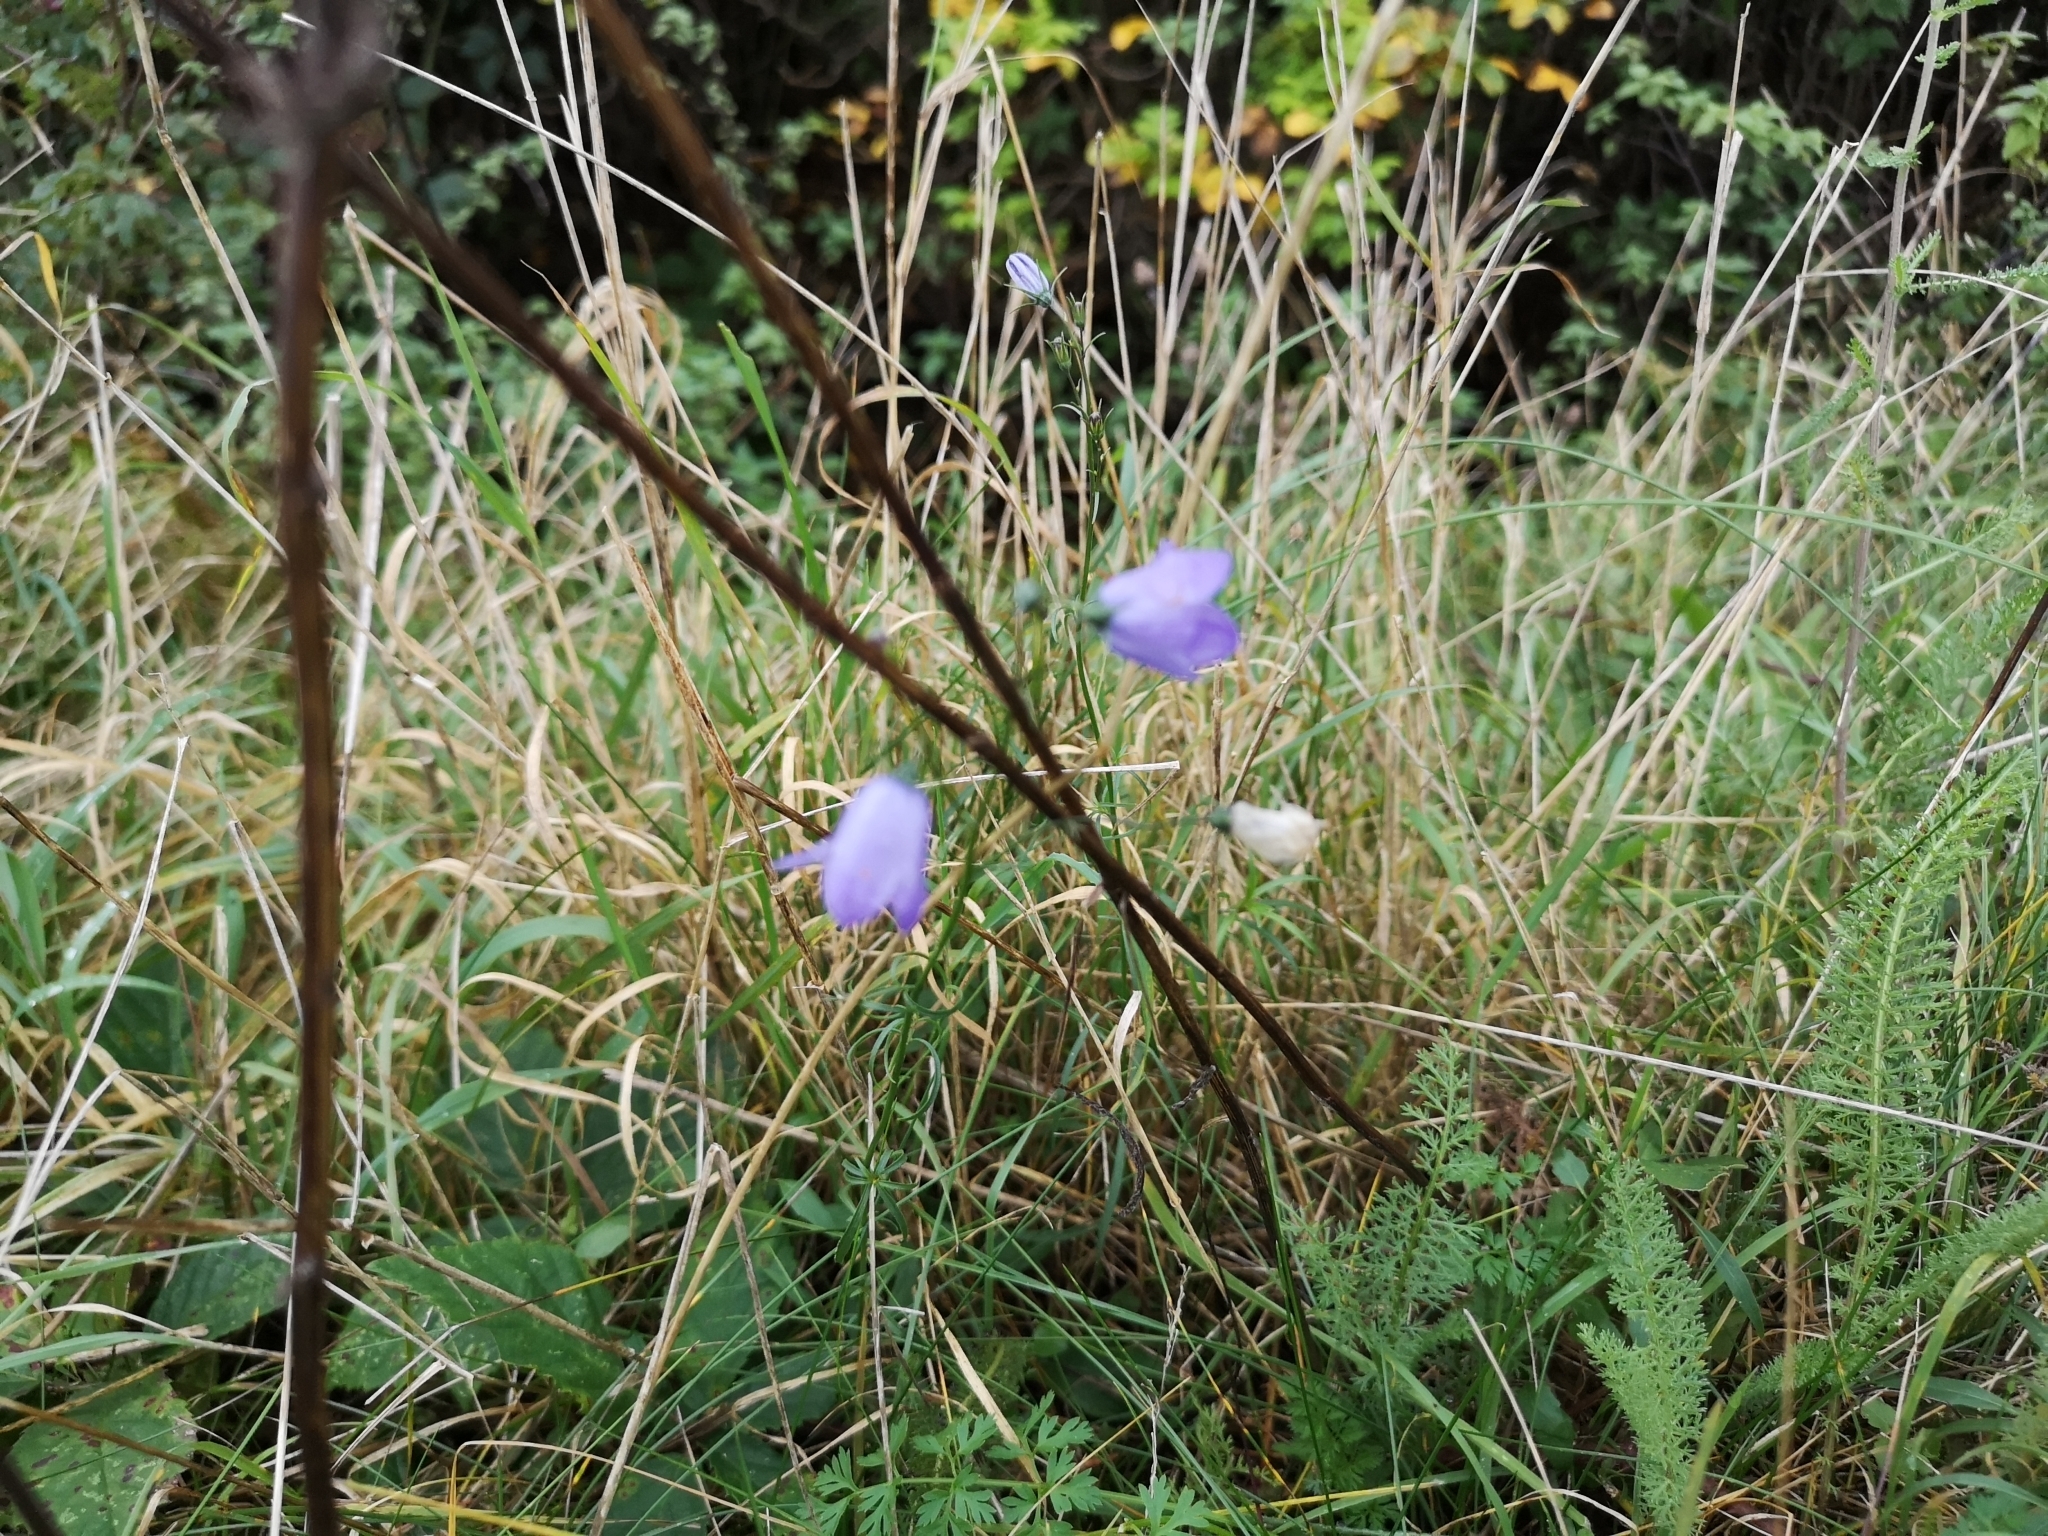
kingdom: Plantae
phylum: Tracheophyta
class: Magnoliopsida
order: Asterales
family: Campanulaceae
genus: Campanula
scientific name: Campanula rotundifolia
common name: Harebell
